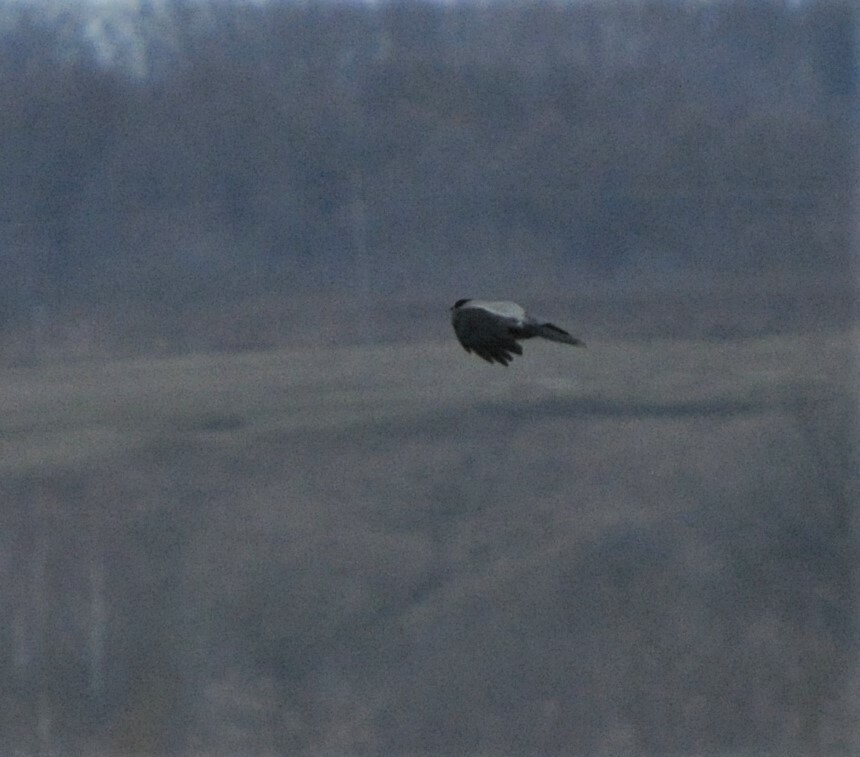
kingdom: Animalia
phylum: Chordata
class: Aves
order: Passeriformes
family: Corvidae
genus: Corvus
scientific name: Corvus cornix
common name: Hooded crow
